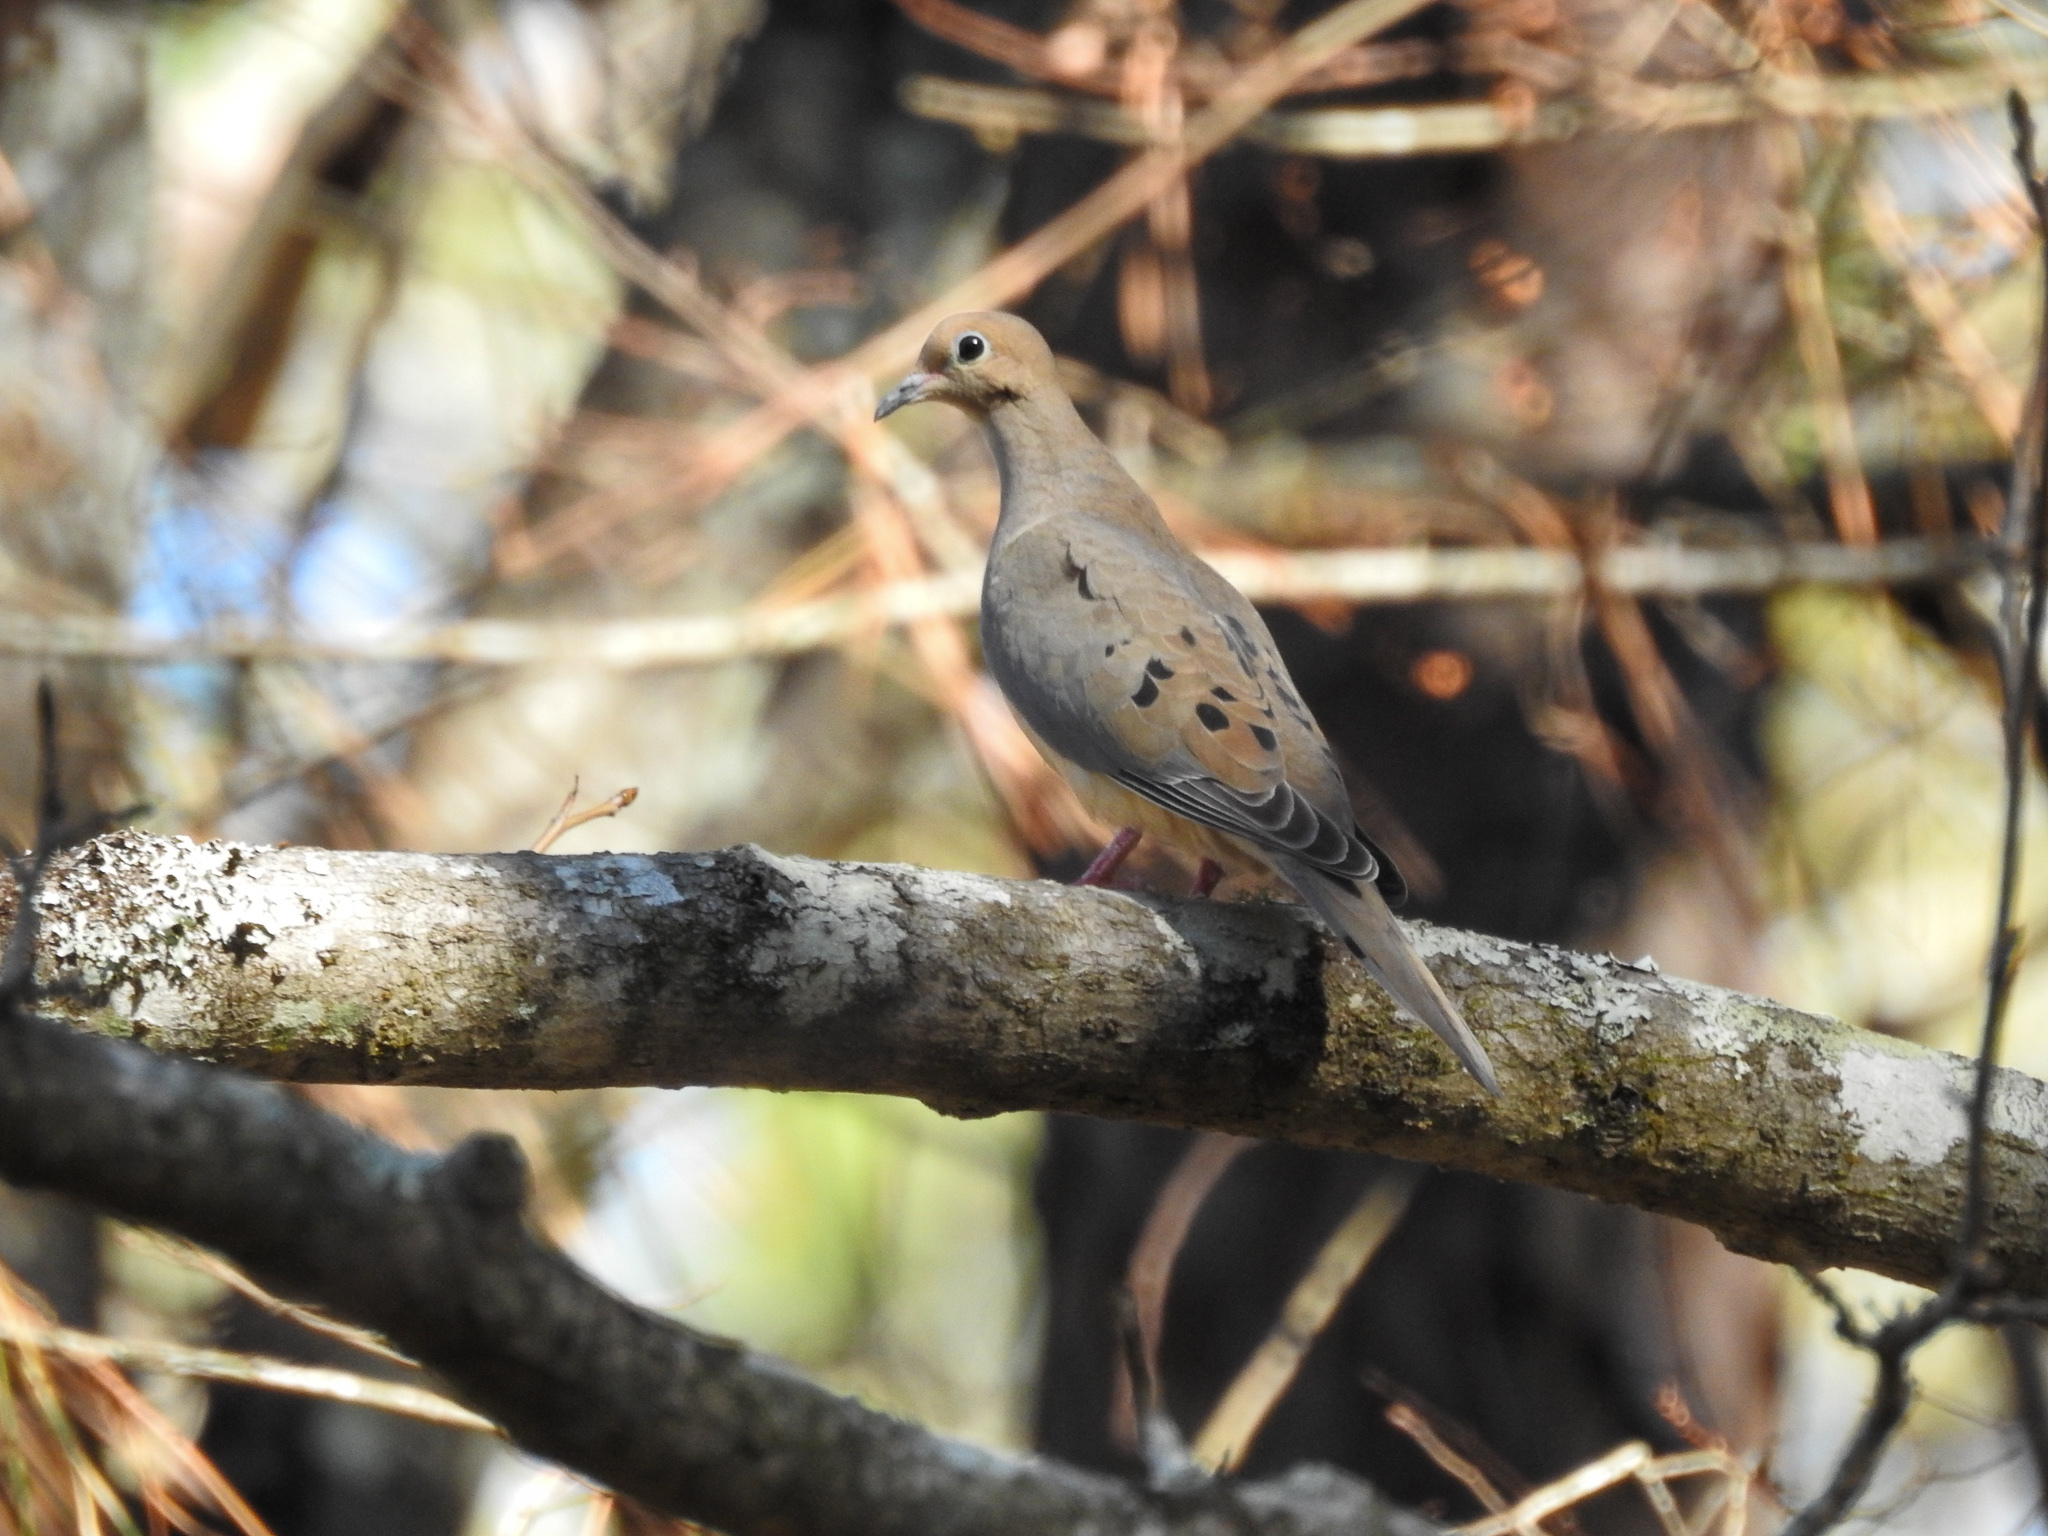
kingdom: Animalia
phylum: Chordata
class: Aves
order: Columbiformes
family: Columbidae
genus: Zenaida
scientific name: Zenaida macroura
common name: Mourning dove
